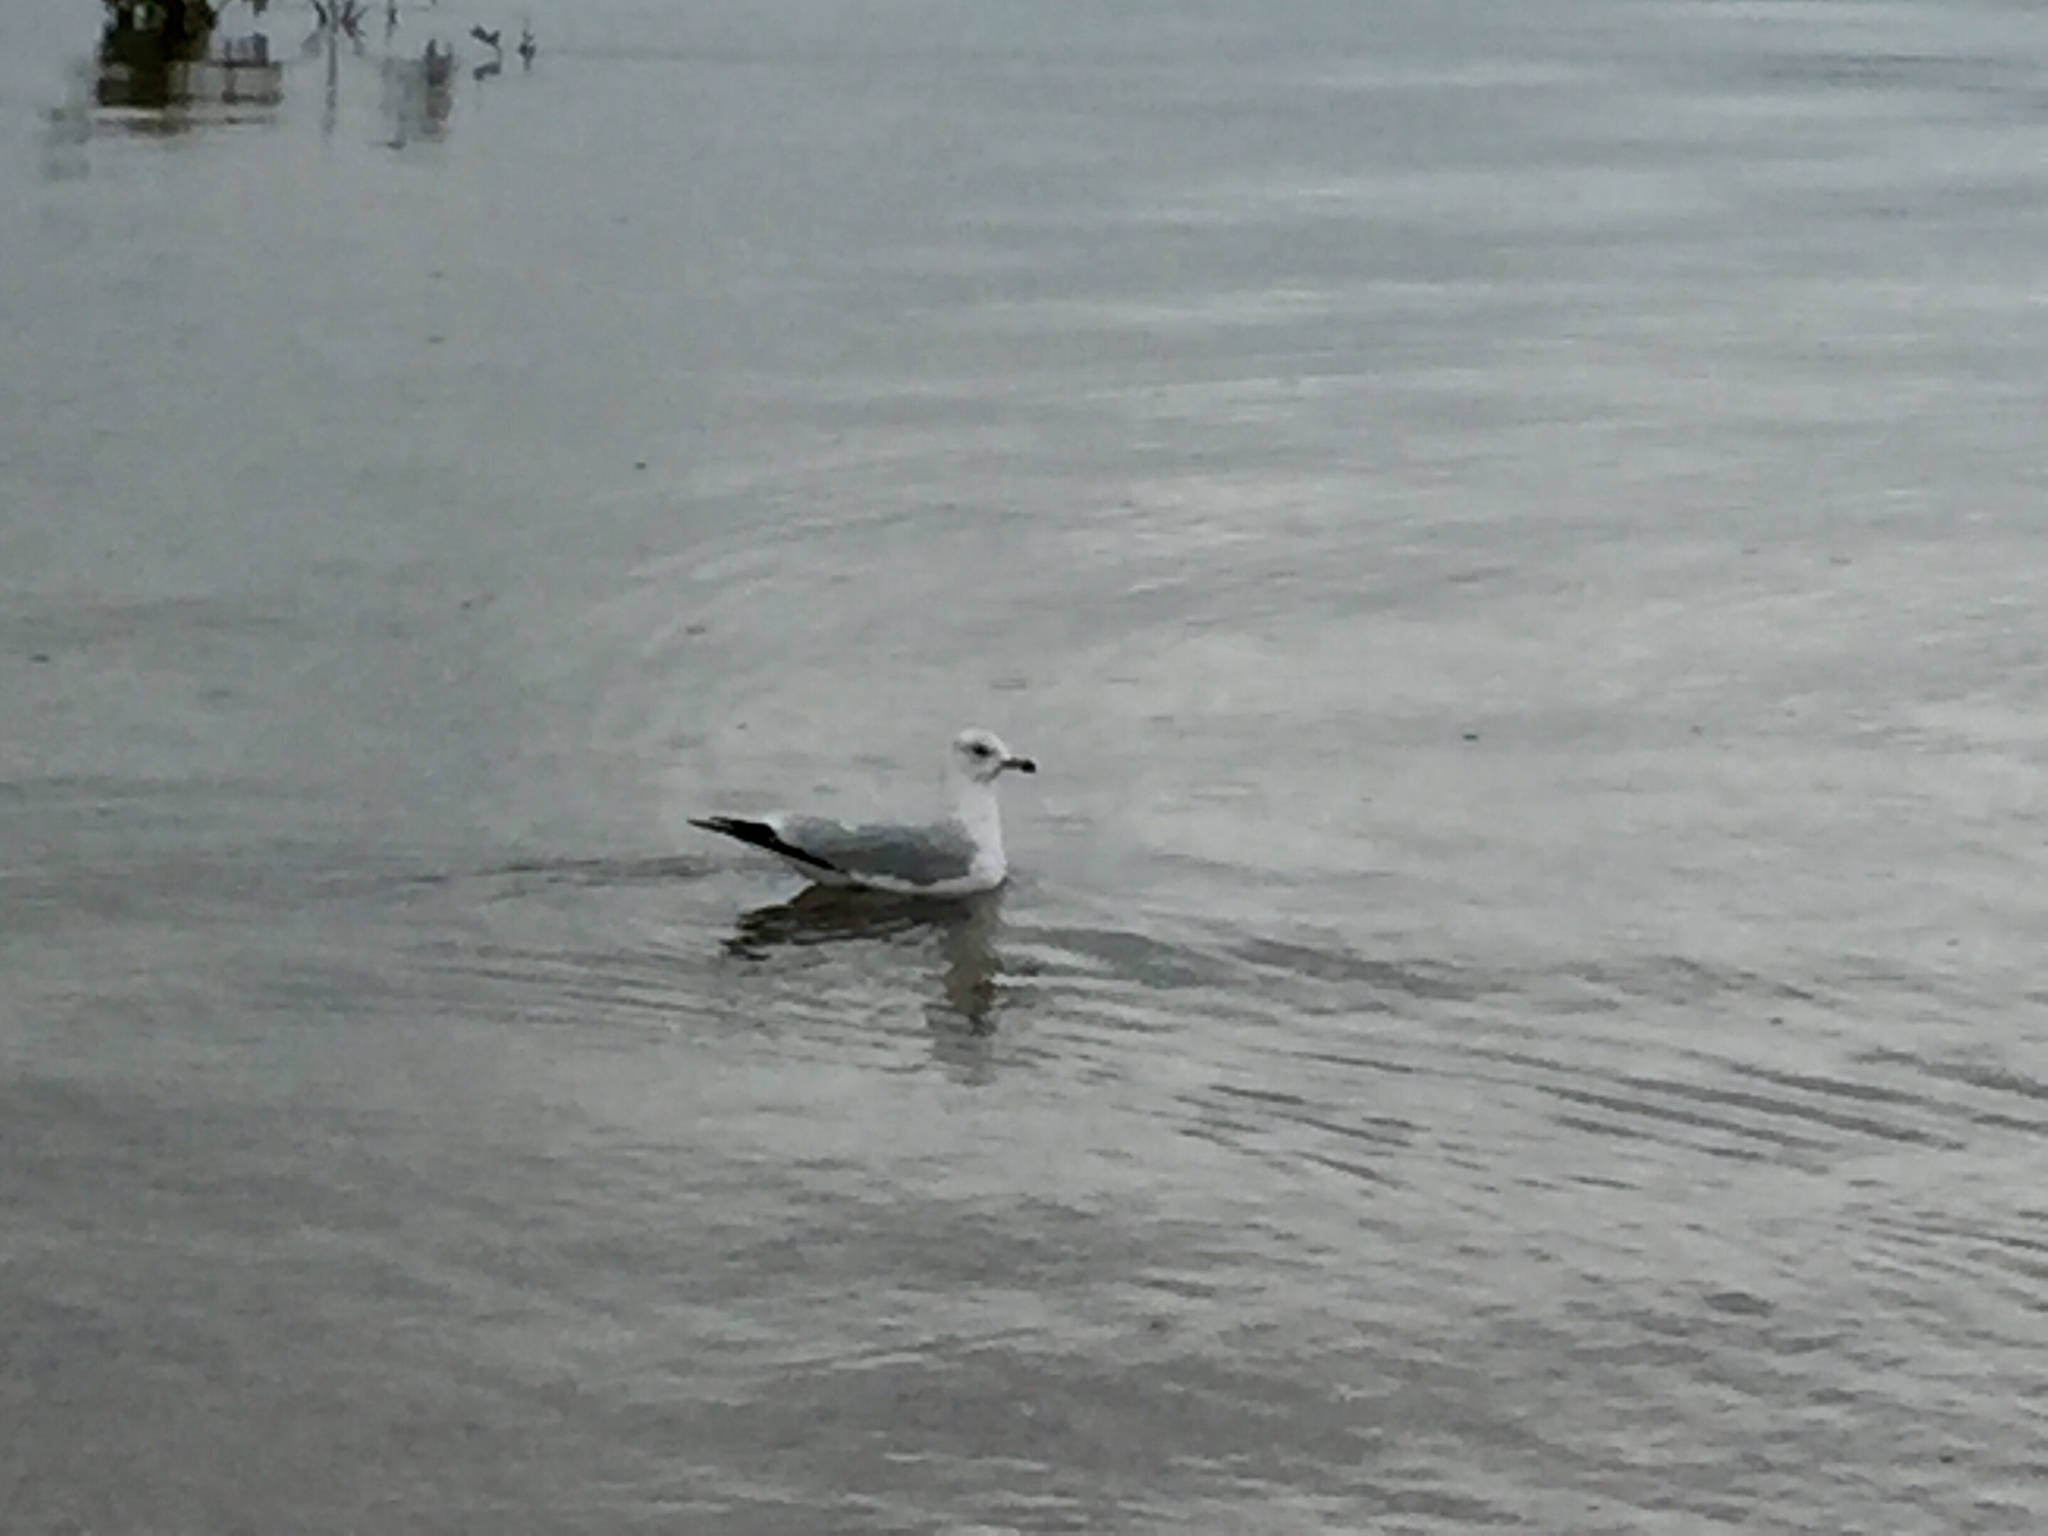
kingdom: Animalia
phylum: Chordata
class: Aves
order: Charadriiformes
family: Laridae
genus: Larus
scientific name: Larus delawarensis
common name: Ring-billed gull
